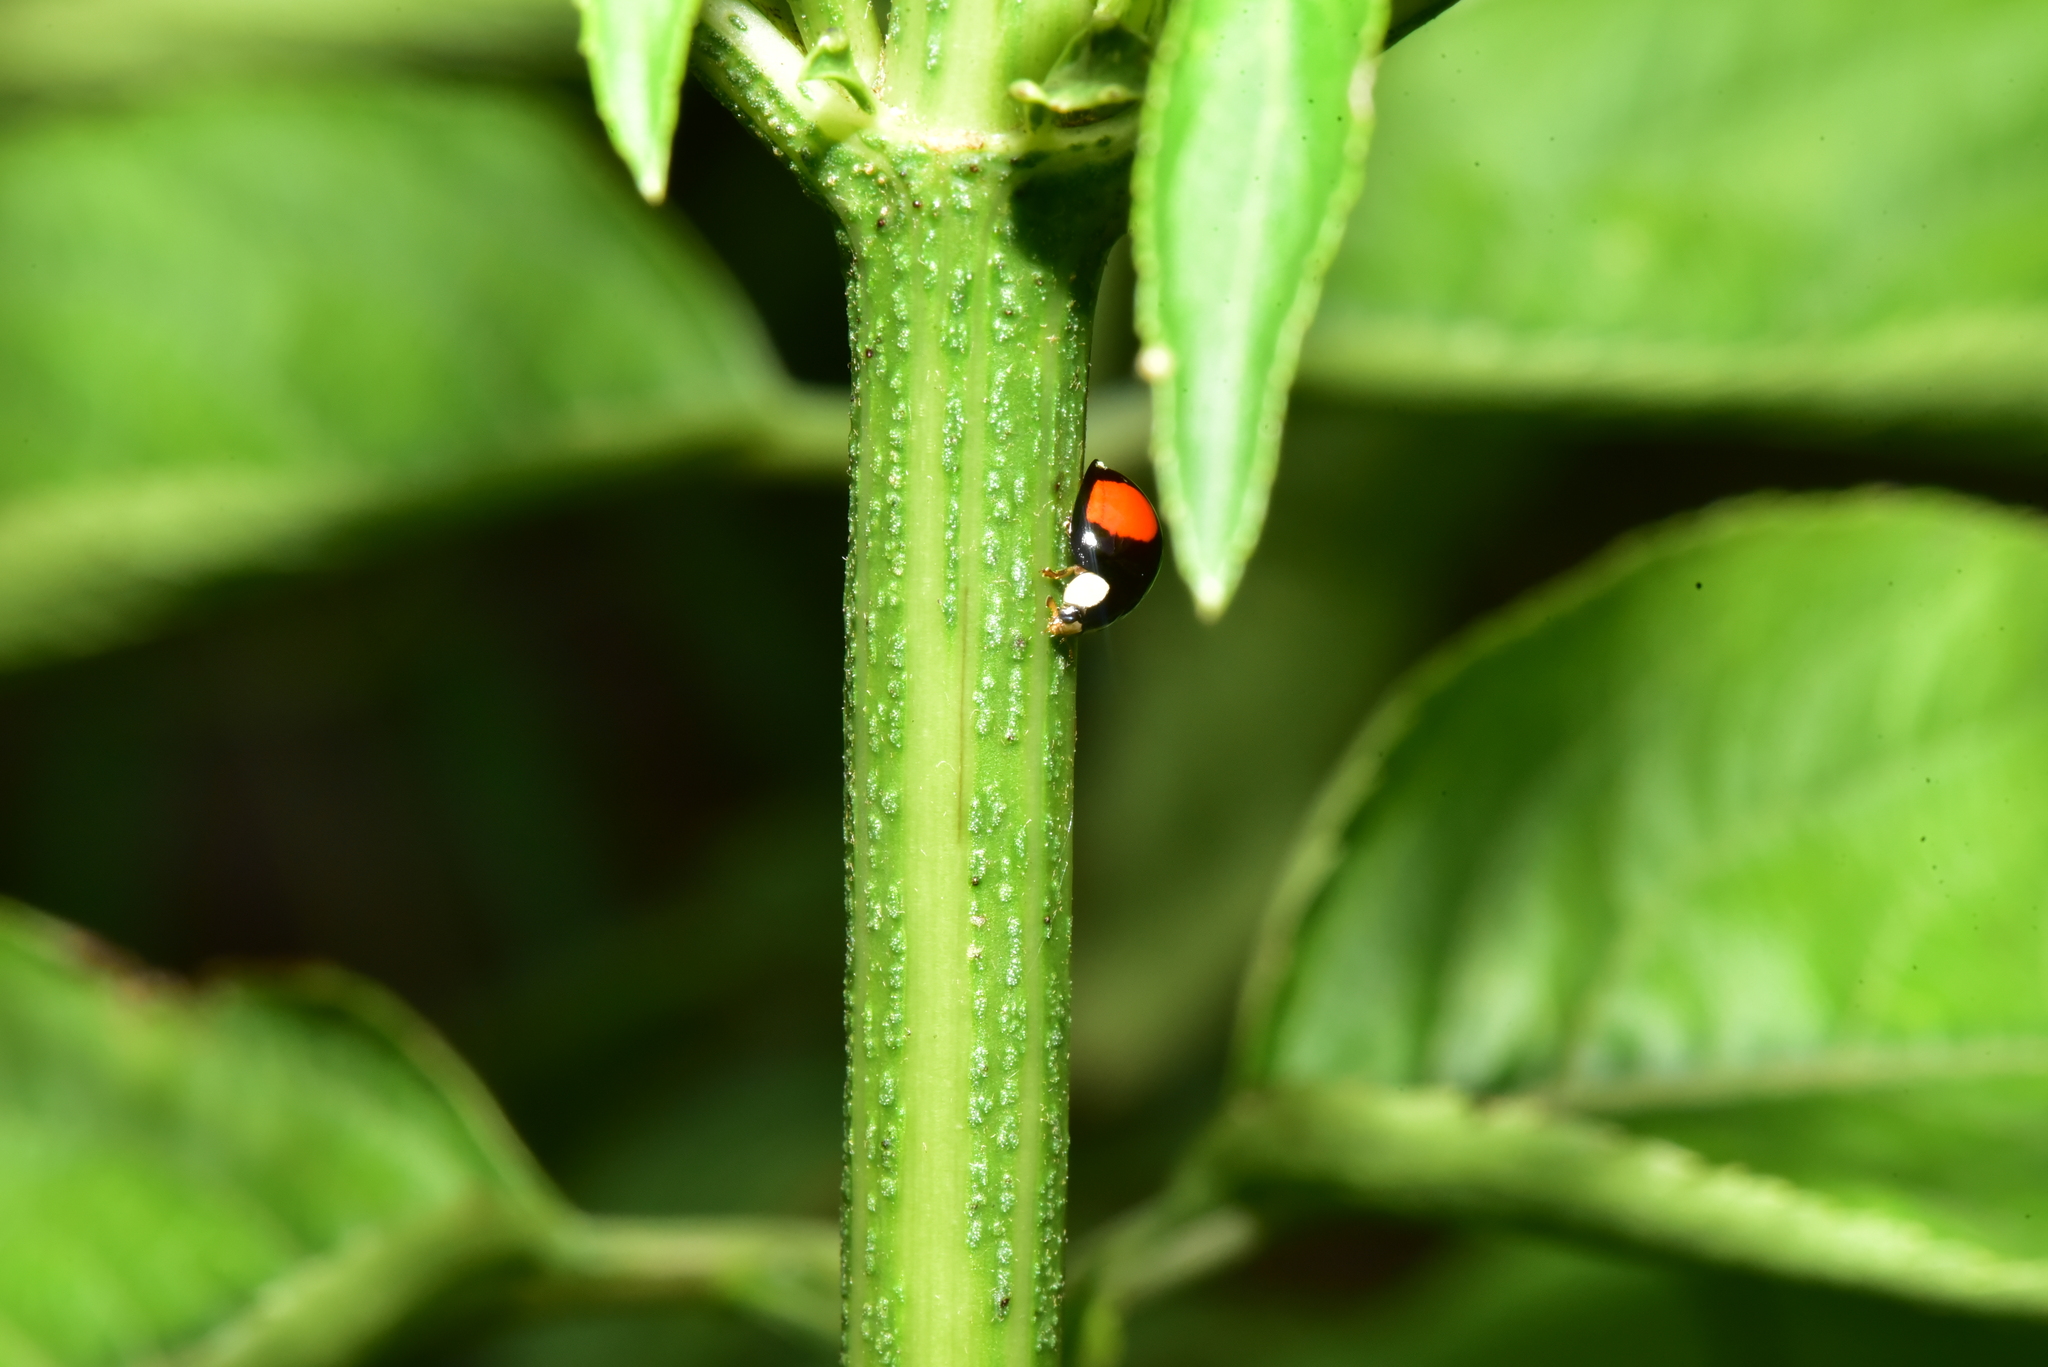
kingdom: Animalia
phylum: Arthropoda
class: Insecta
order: Coleoptera
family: Coccinellidae
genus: Coelophora
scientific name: Coelophora saucia
